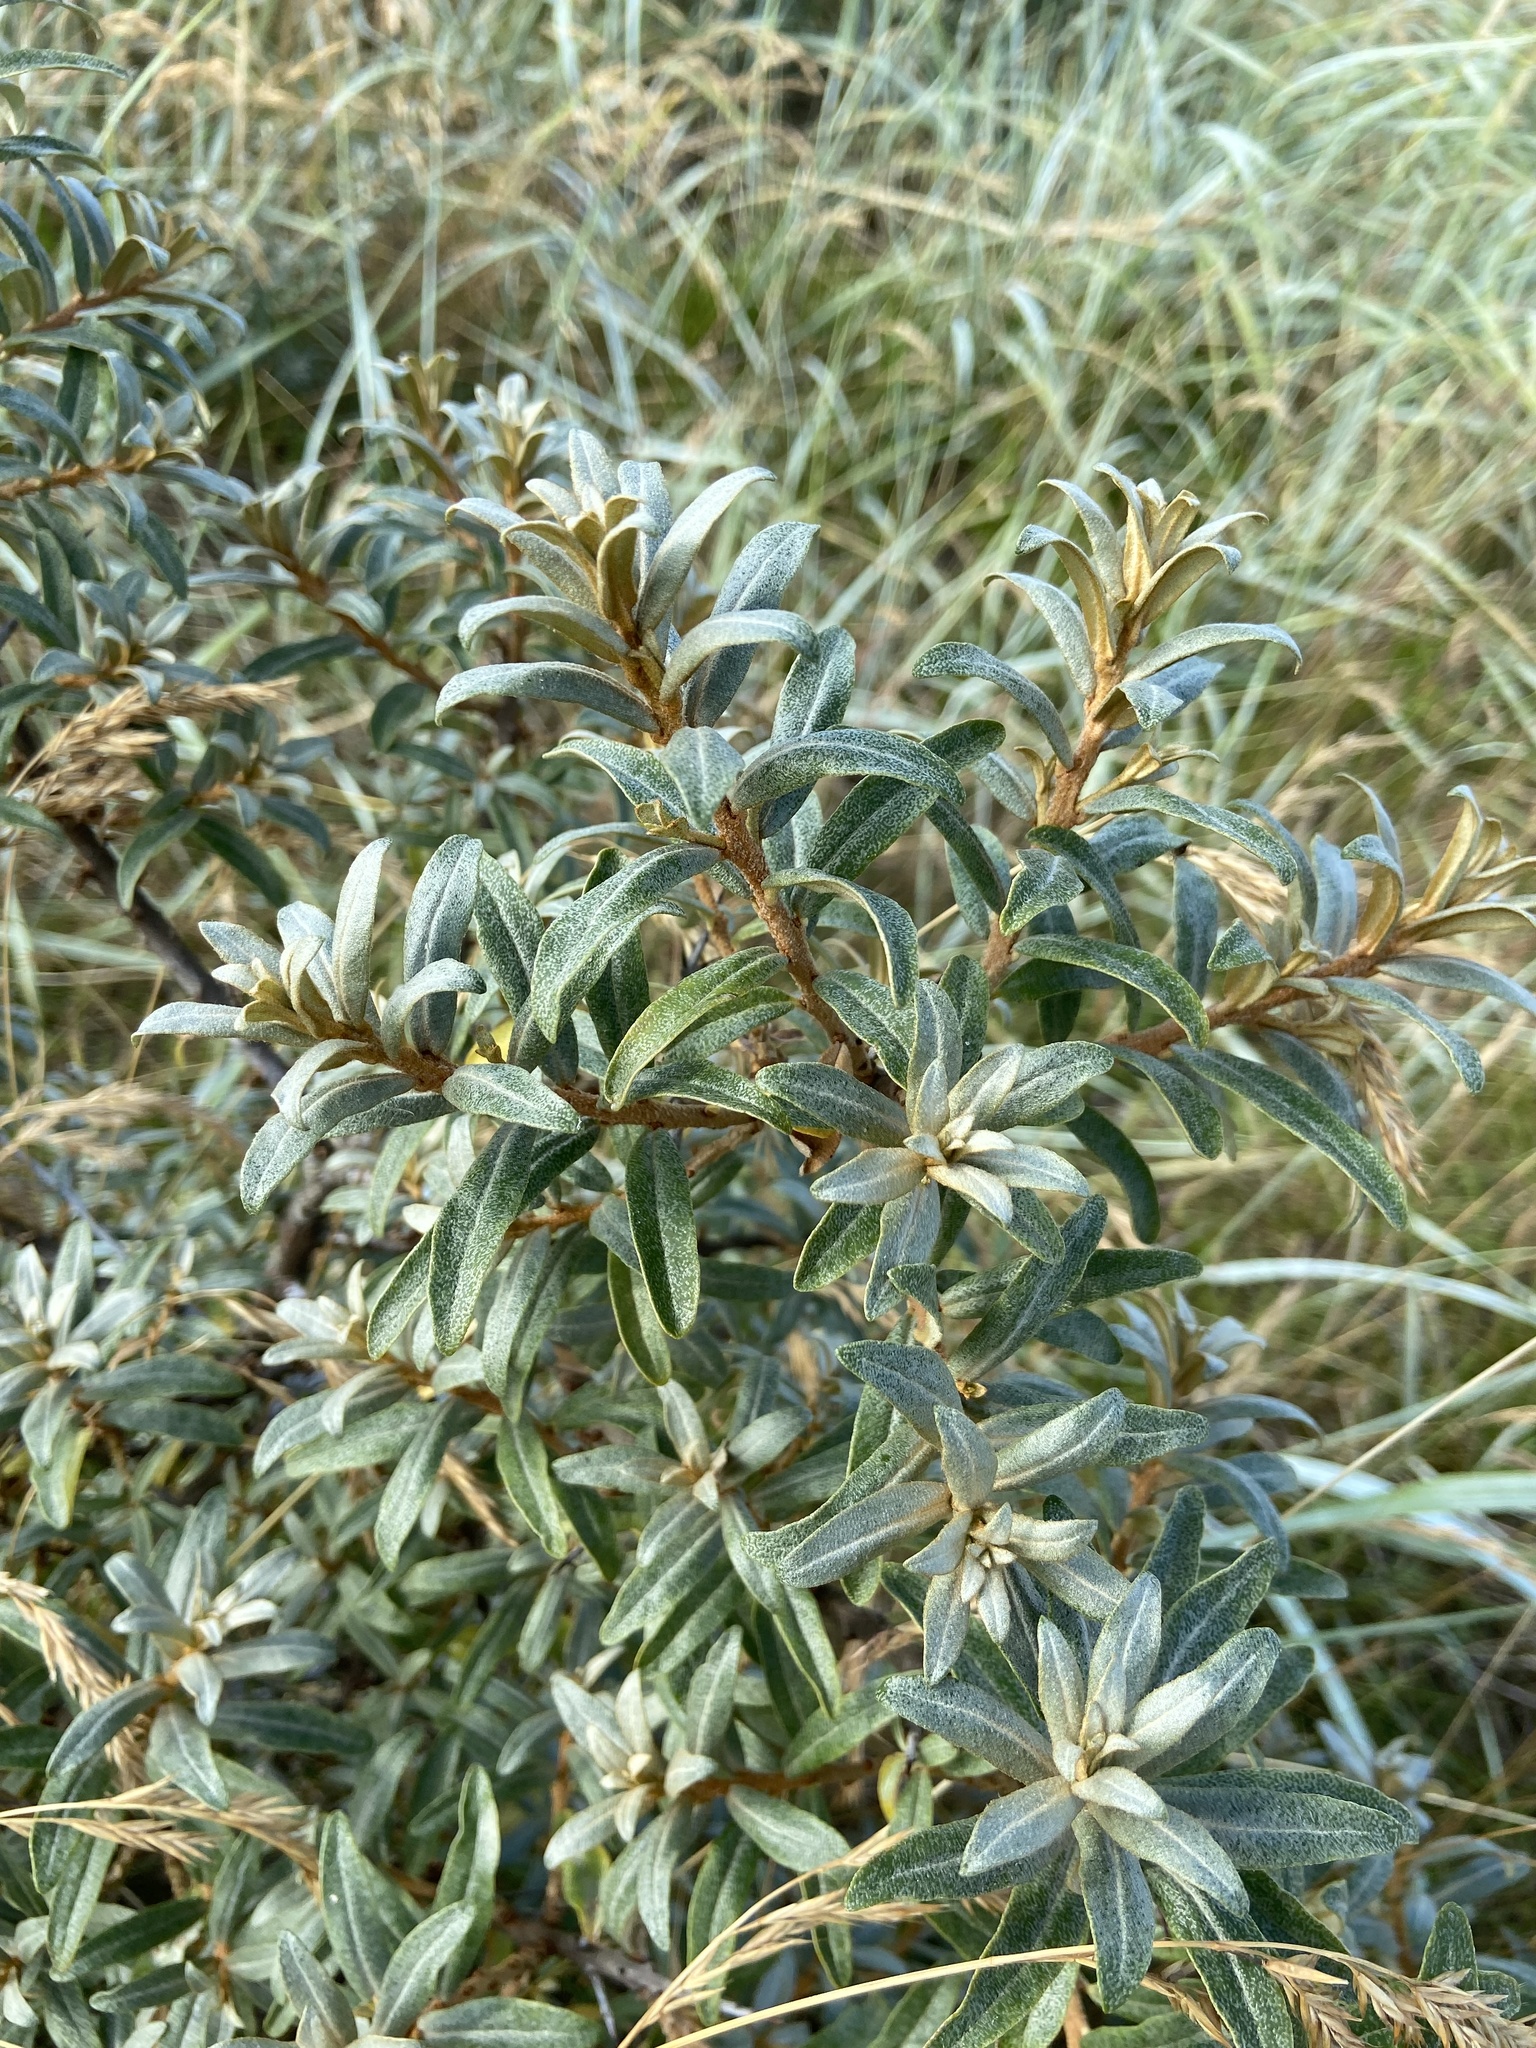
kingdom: Plantae
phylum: Tracheophyta
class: Magnoliopsida
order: Rosales
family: Elaeagnaceae
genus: Hippophae
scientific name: Hippophae rhamnoides
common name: Sea-buckthorn
